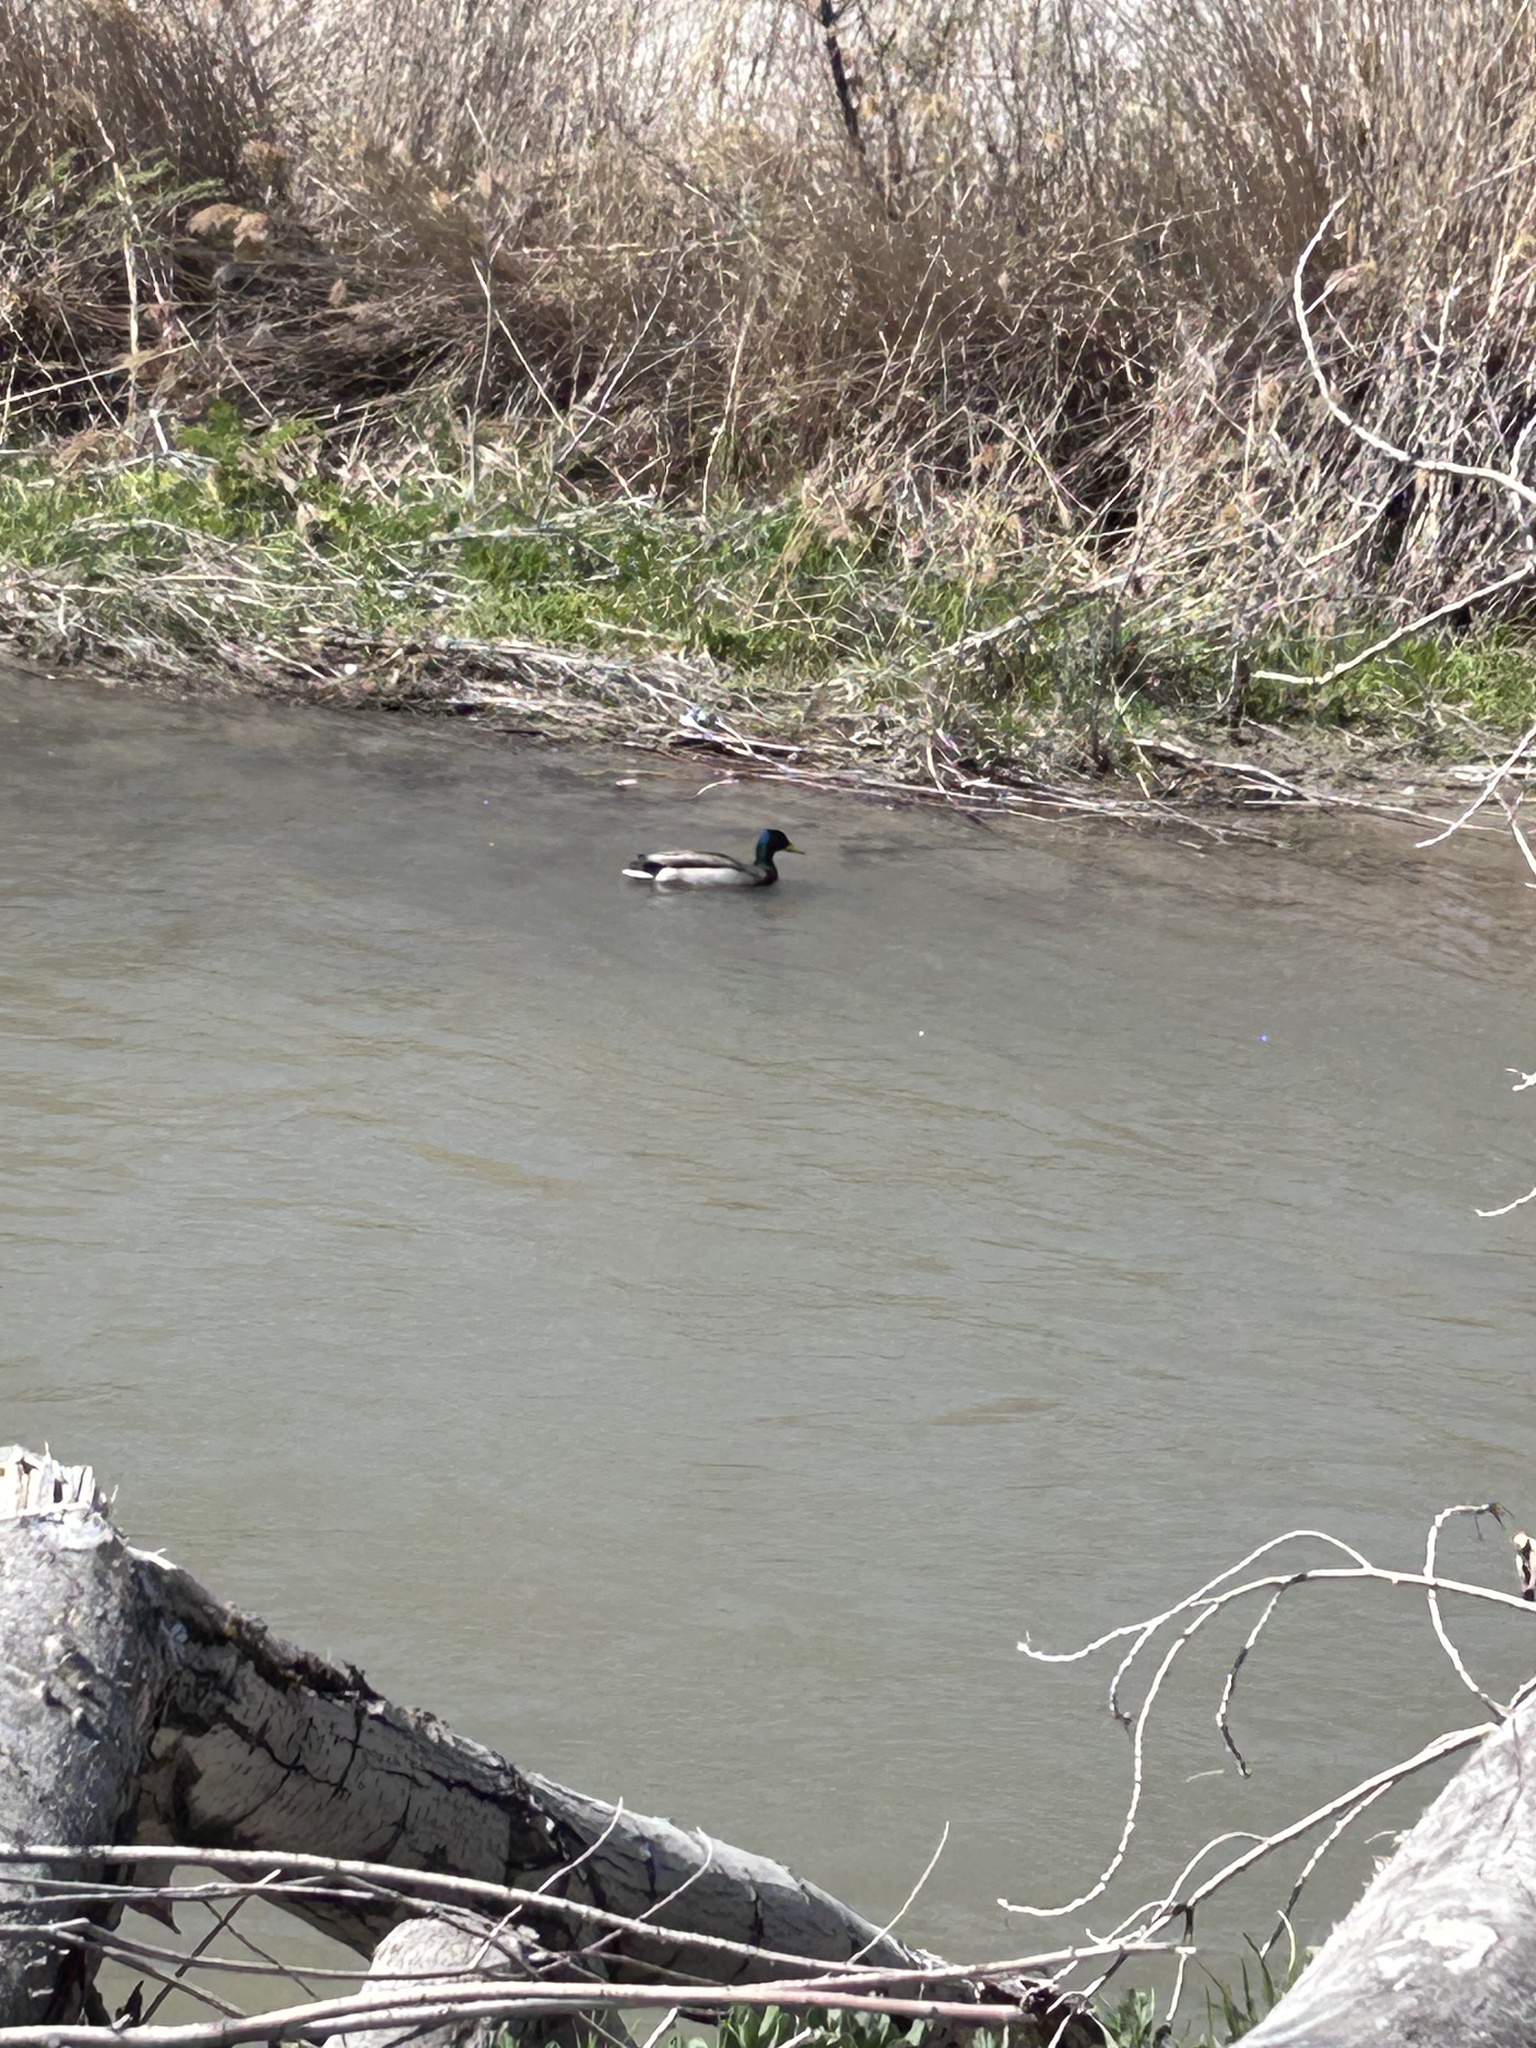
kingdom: Animalia
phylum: Chordata
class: Aves
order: Anseriformes
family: Anatidae
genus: Anas
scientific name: Anas platyrhynchos
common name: Mallard
